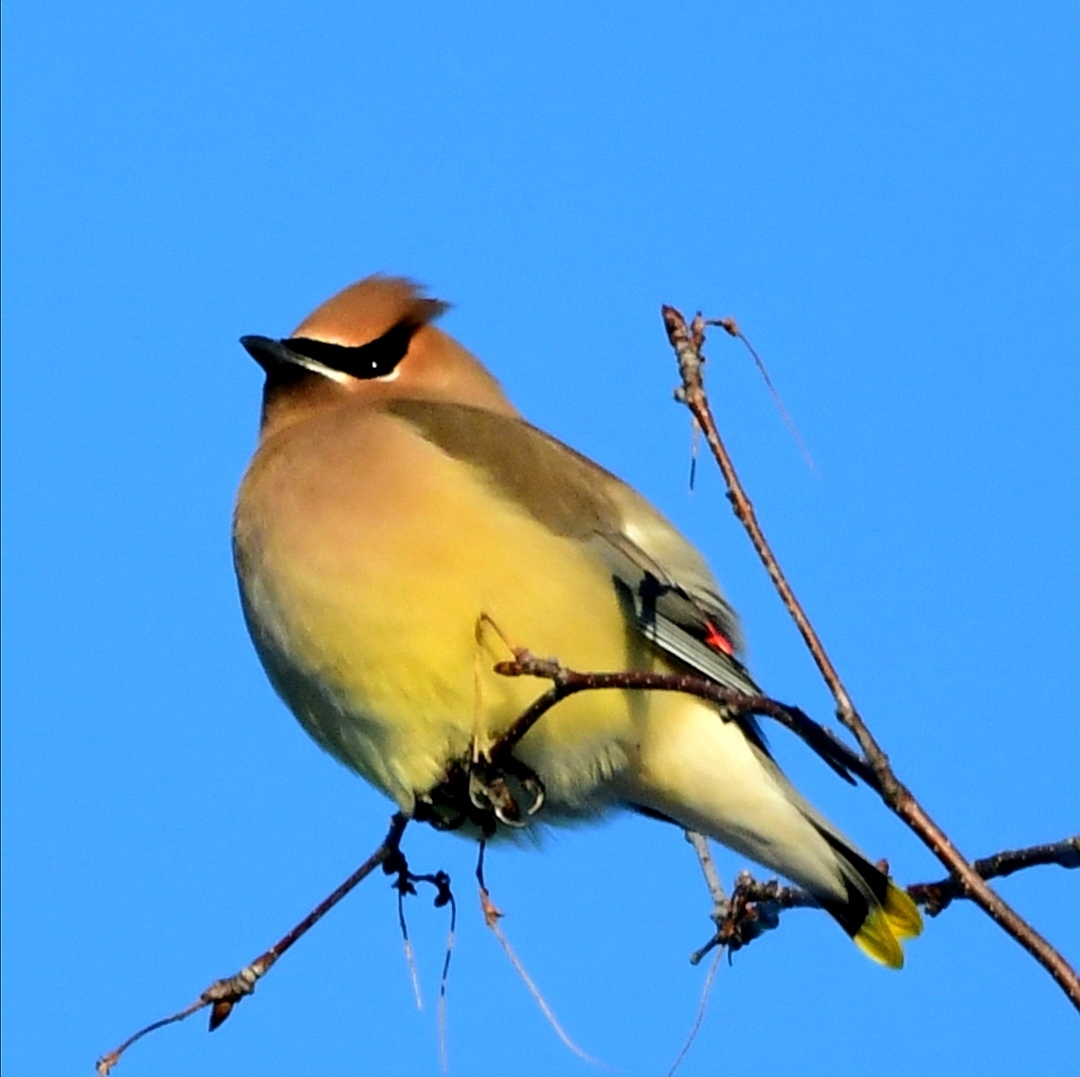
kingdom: Animalia
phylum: Chordata
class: Aves
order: Passeriformes
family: Bombycillidae
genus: Bombycilla
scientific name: Bombycilla cedrorum
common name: Cedar waxwing
